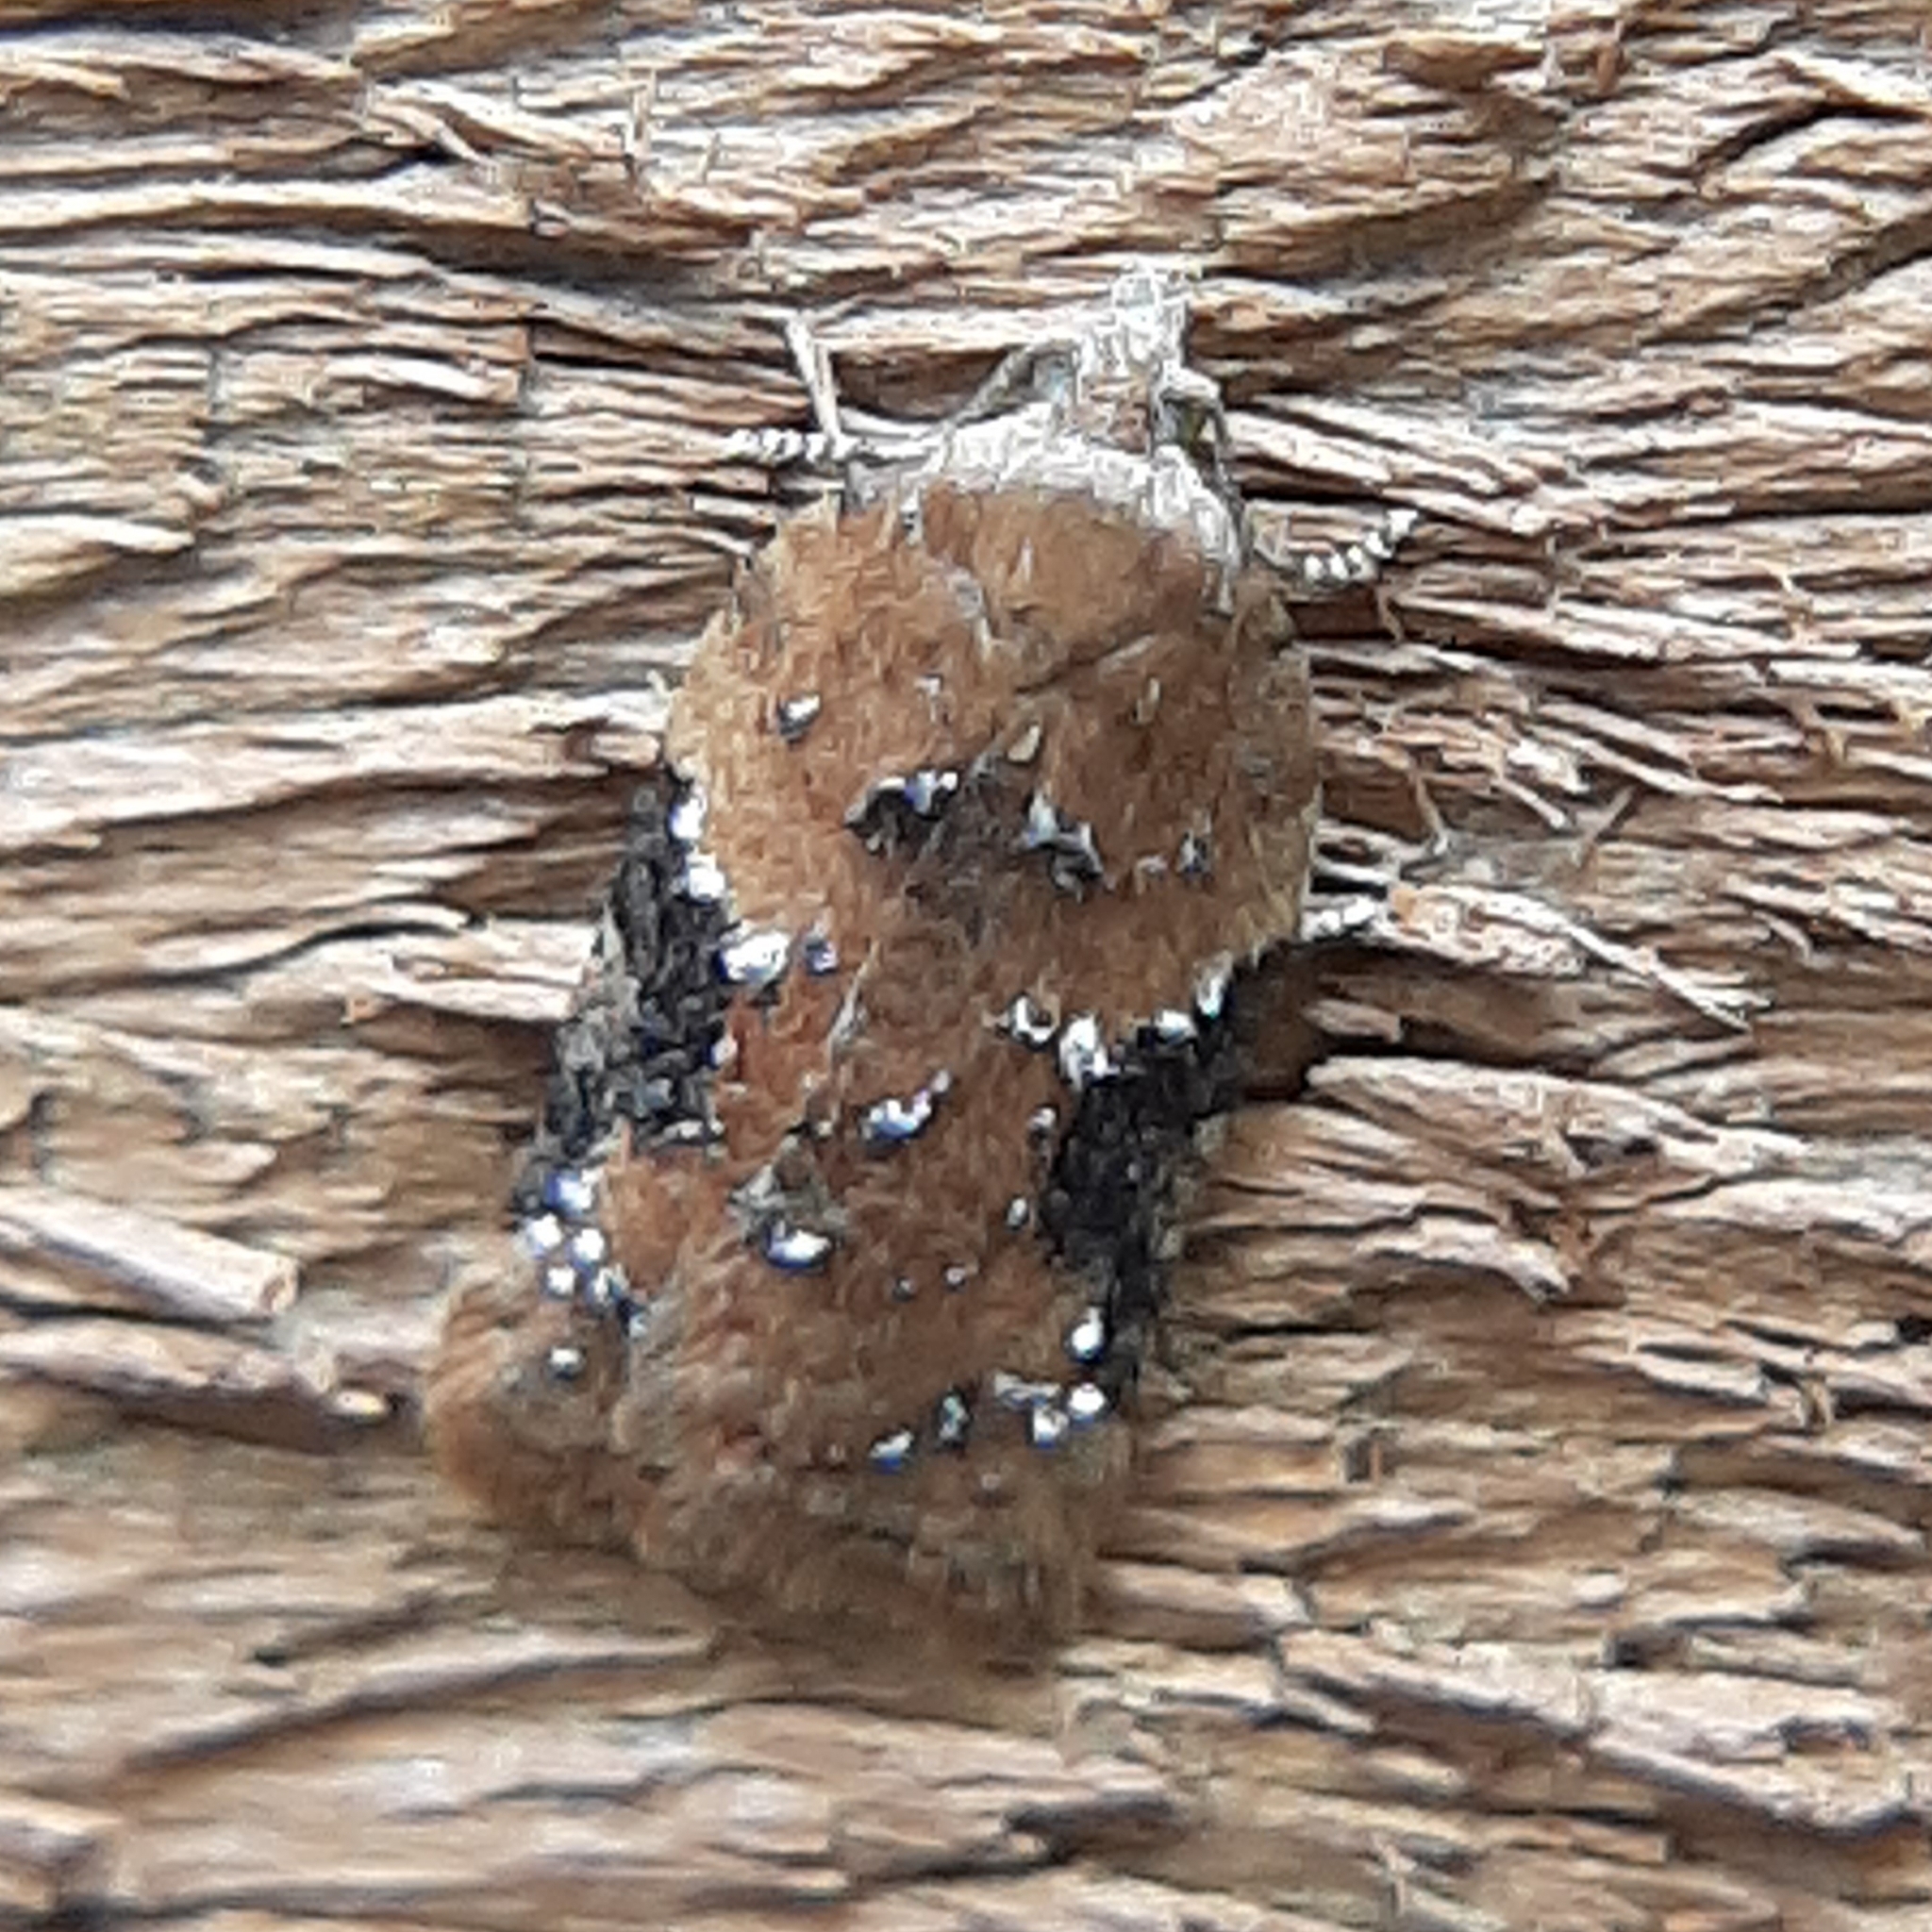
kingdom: Animalia
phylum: Arthropoda
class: Insecta
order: Lepidoptera
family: Tortricidae
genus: Acleris
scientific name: Acleris braunana
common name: Alder leafroller
